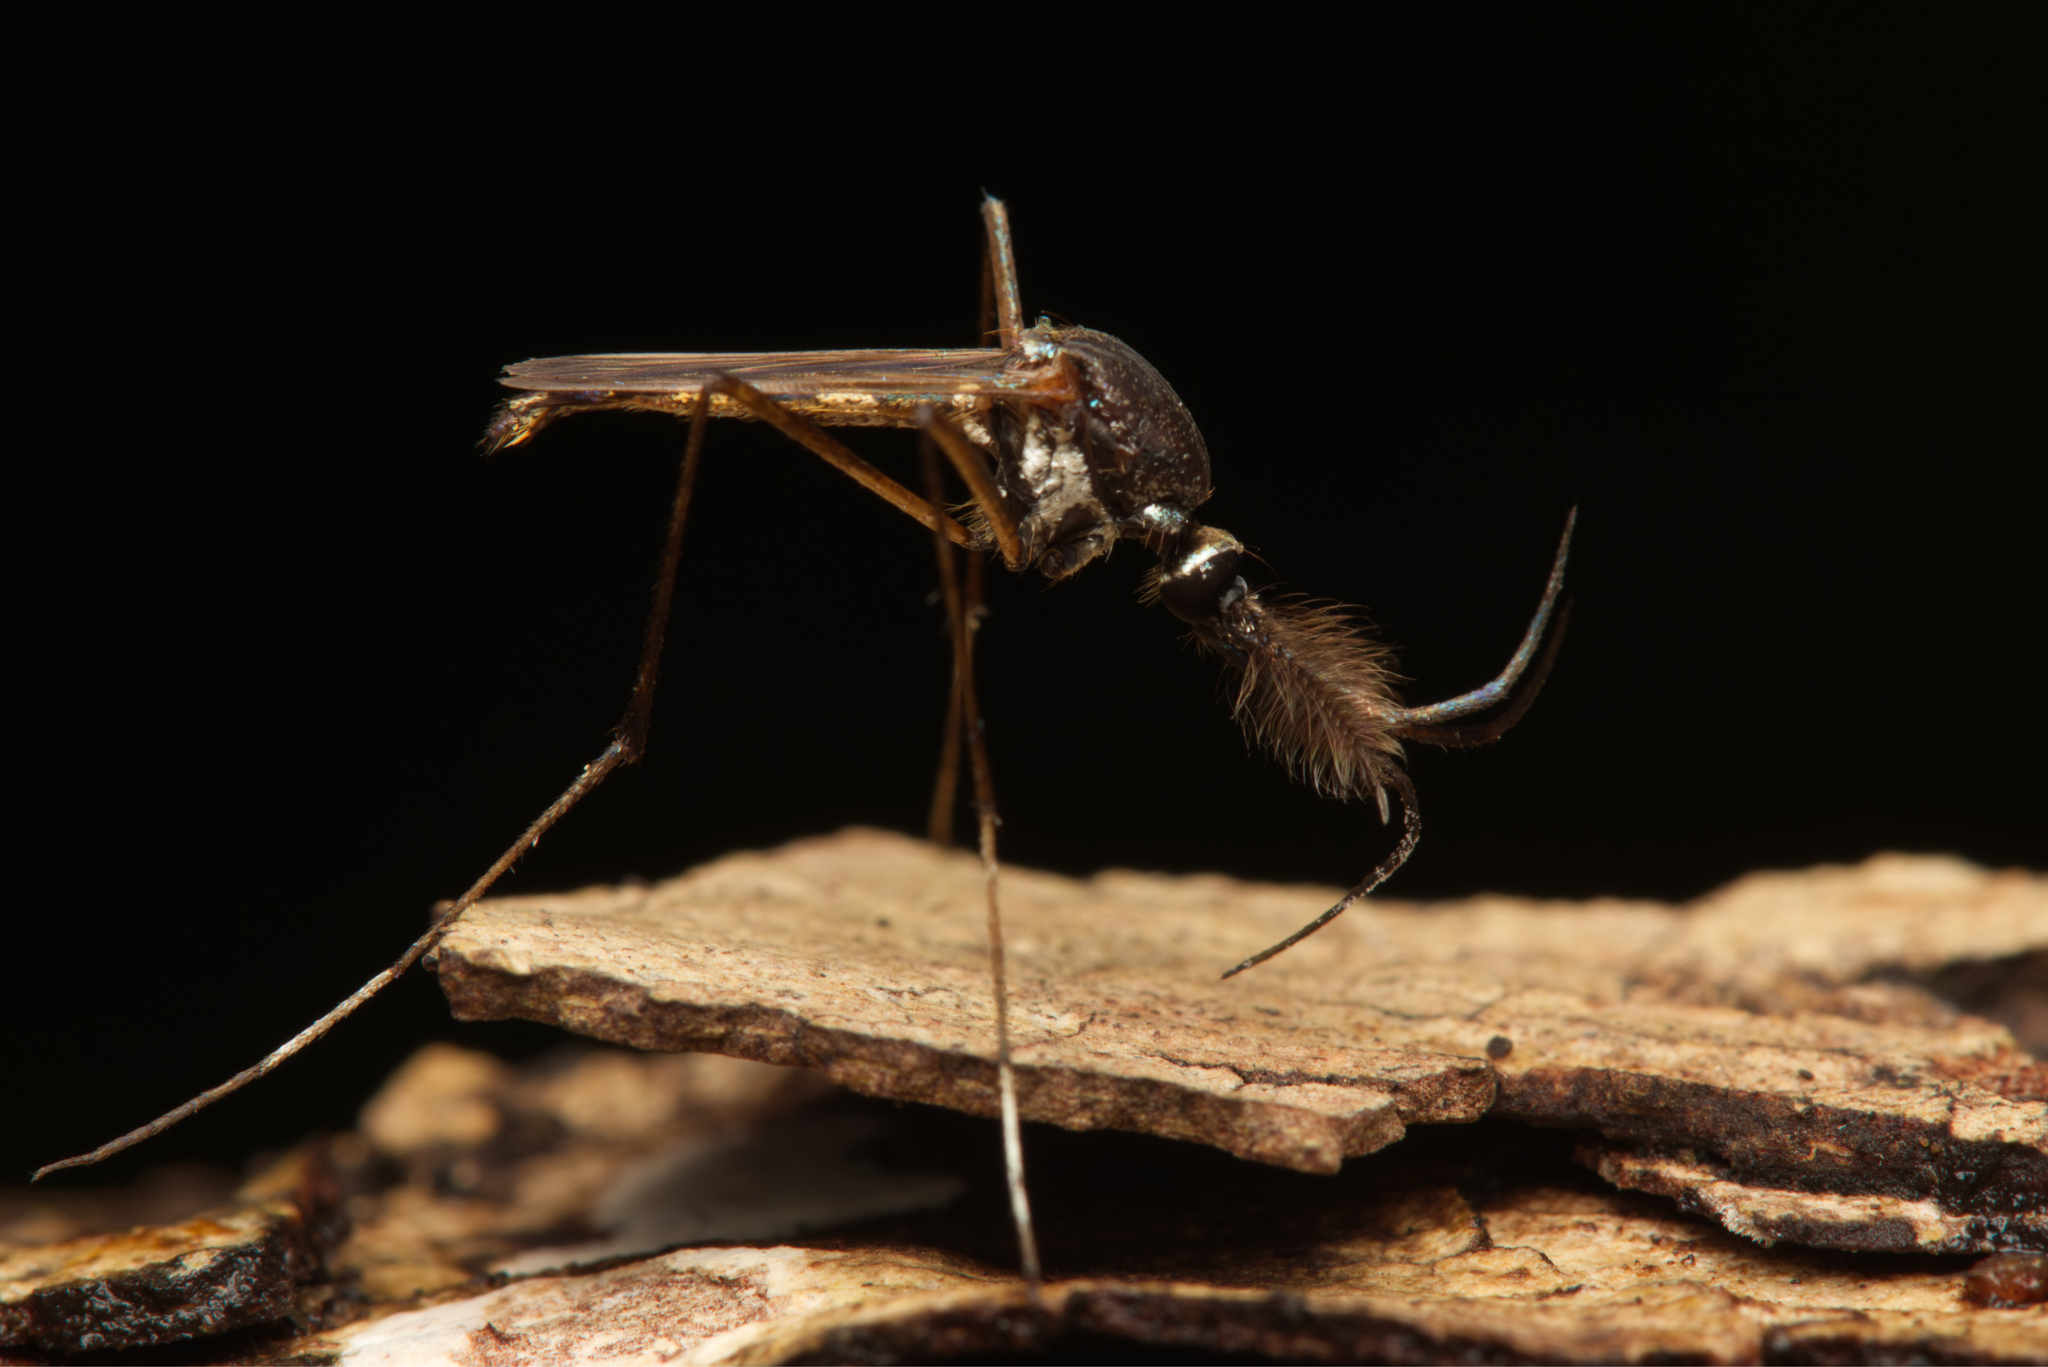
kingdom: Animalia
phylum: Arthropoda
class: Insecta
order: Diptera
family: Culicidae
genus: Toxorhynchites
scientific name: Toxorhynchites speciosus
